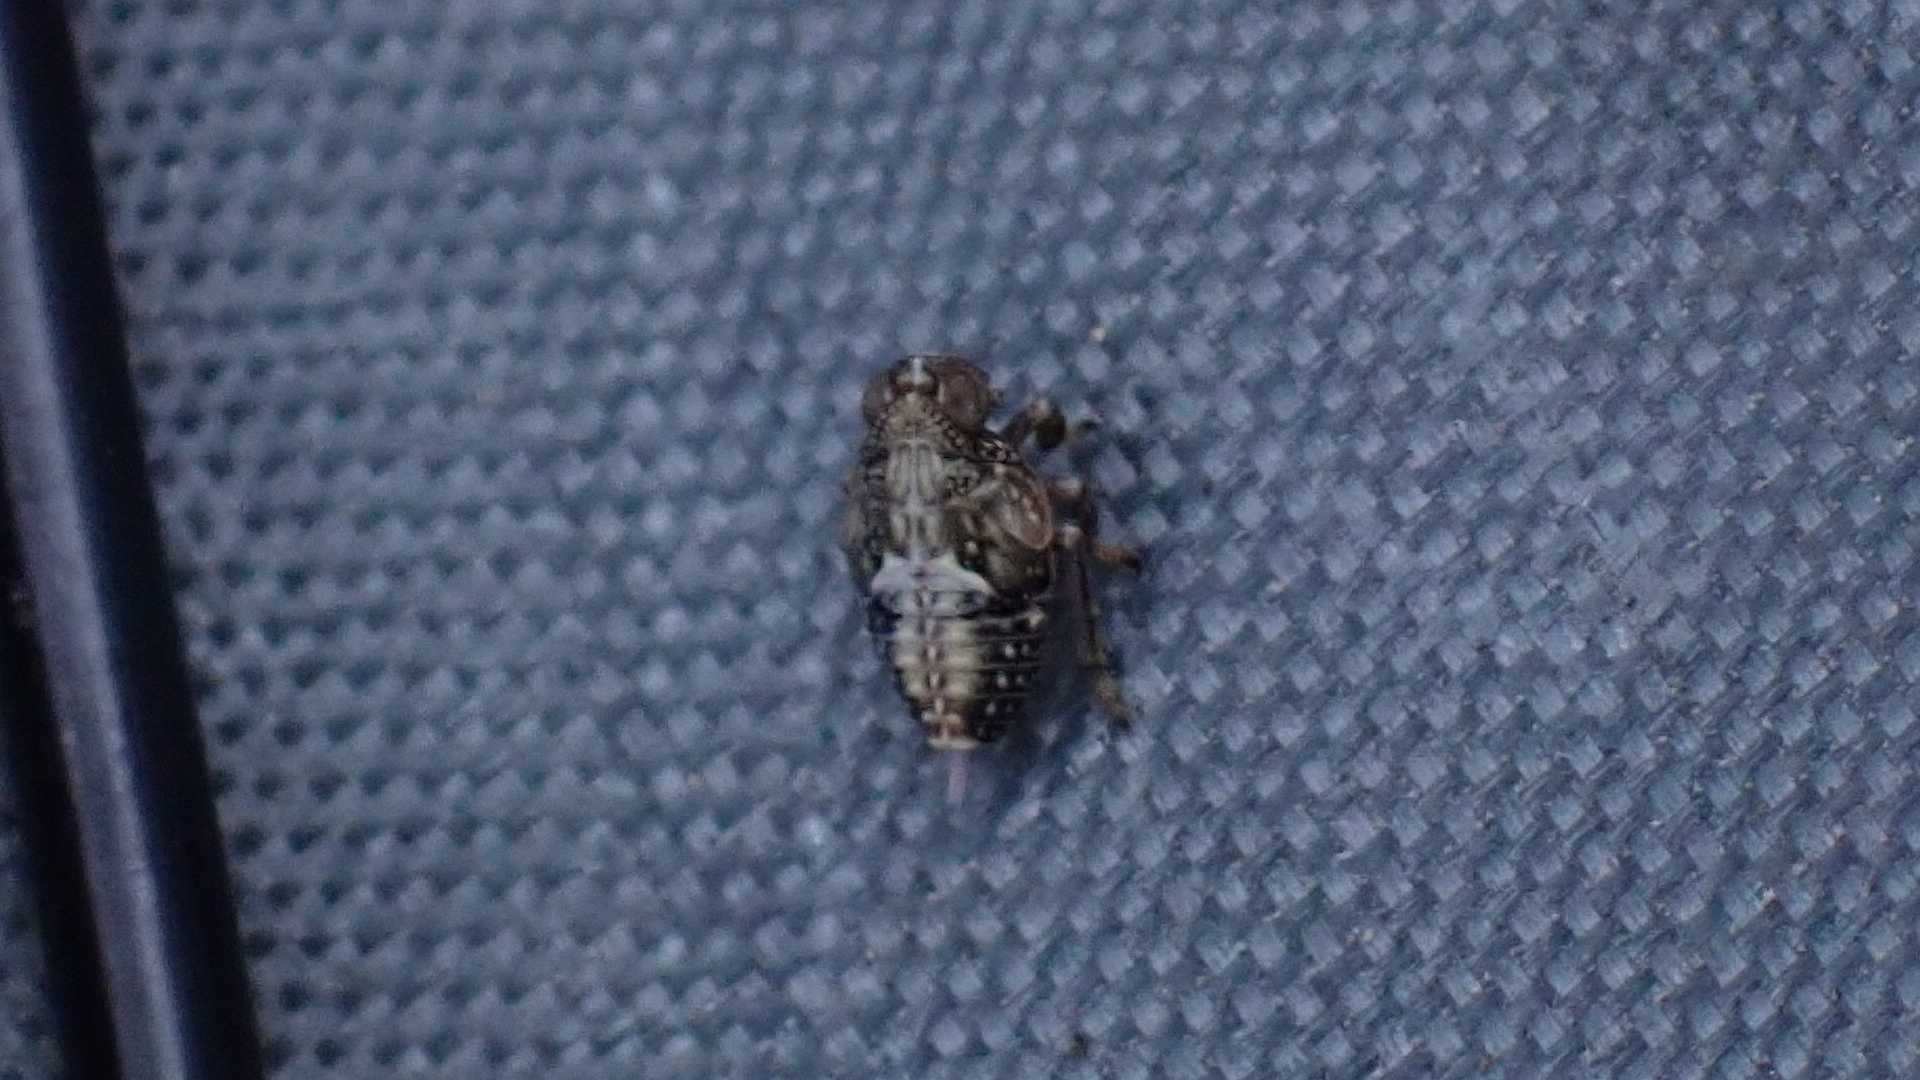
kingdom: Animalia
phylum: Arthropoda
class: Insecta
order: Hemiptera
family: Issidae
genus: Issus
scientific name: Issus
